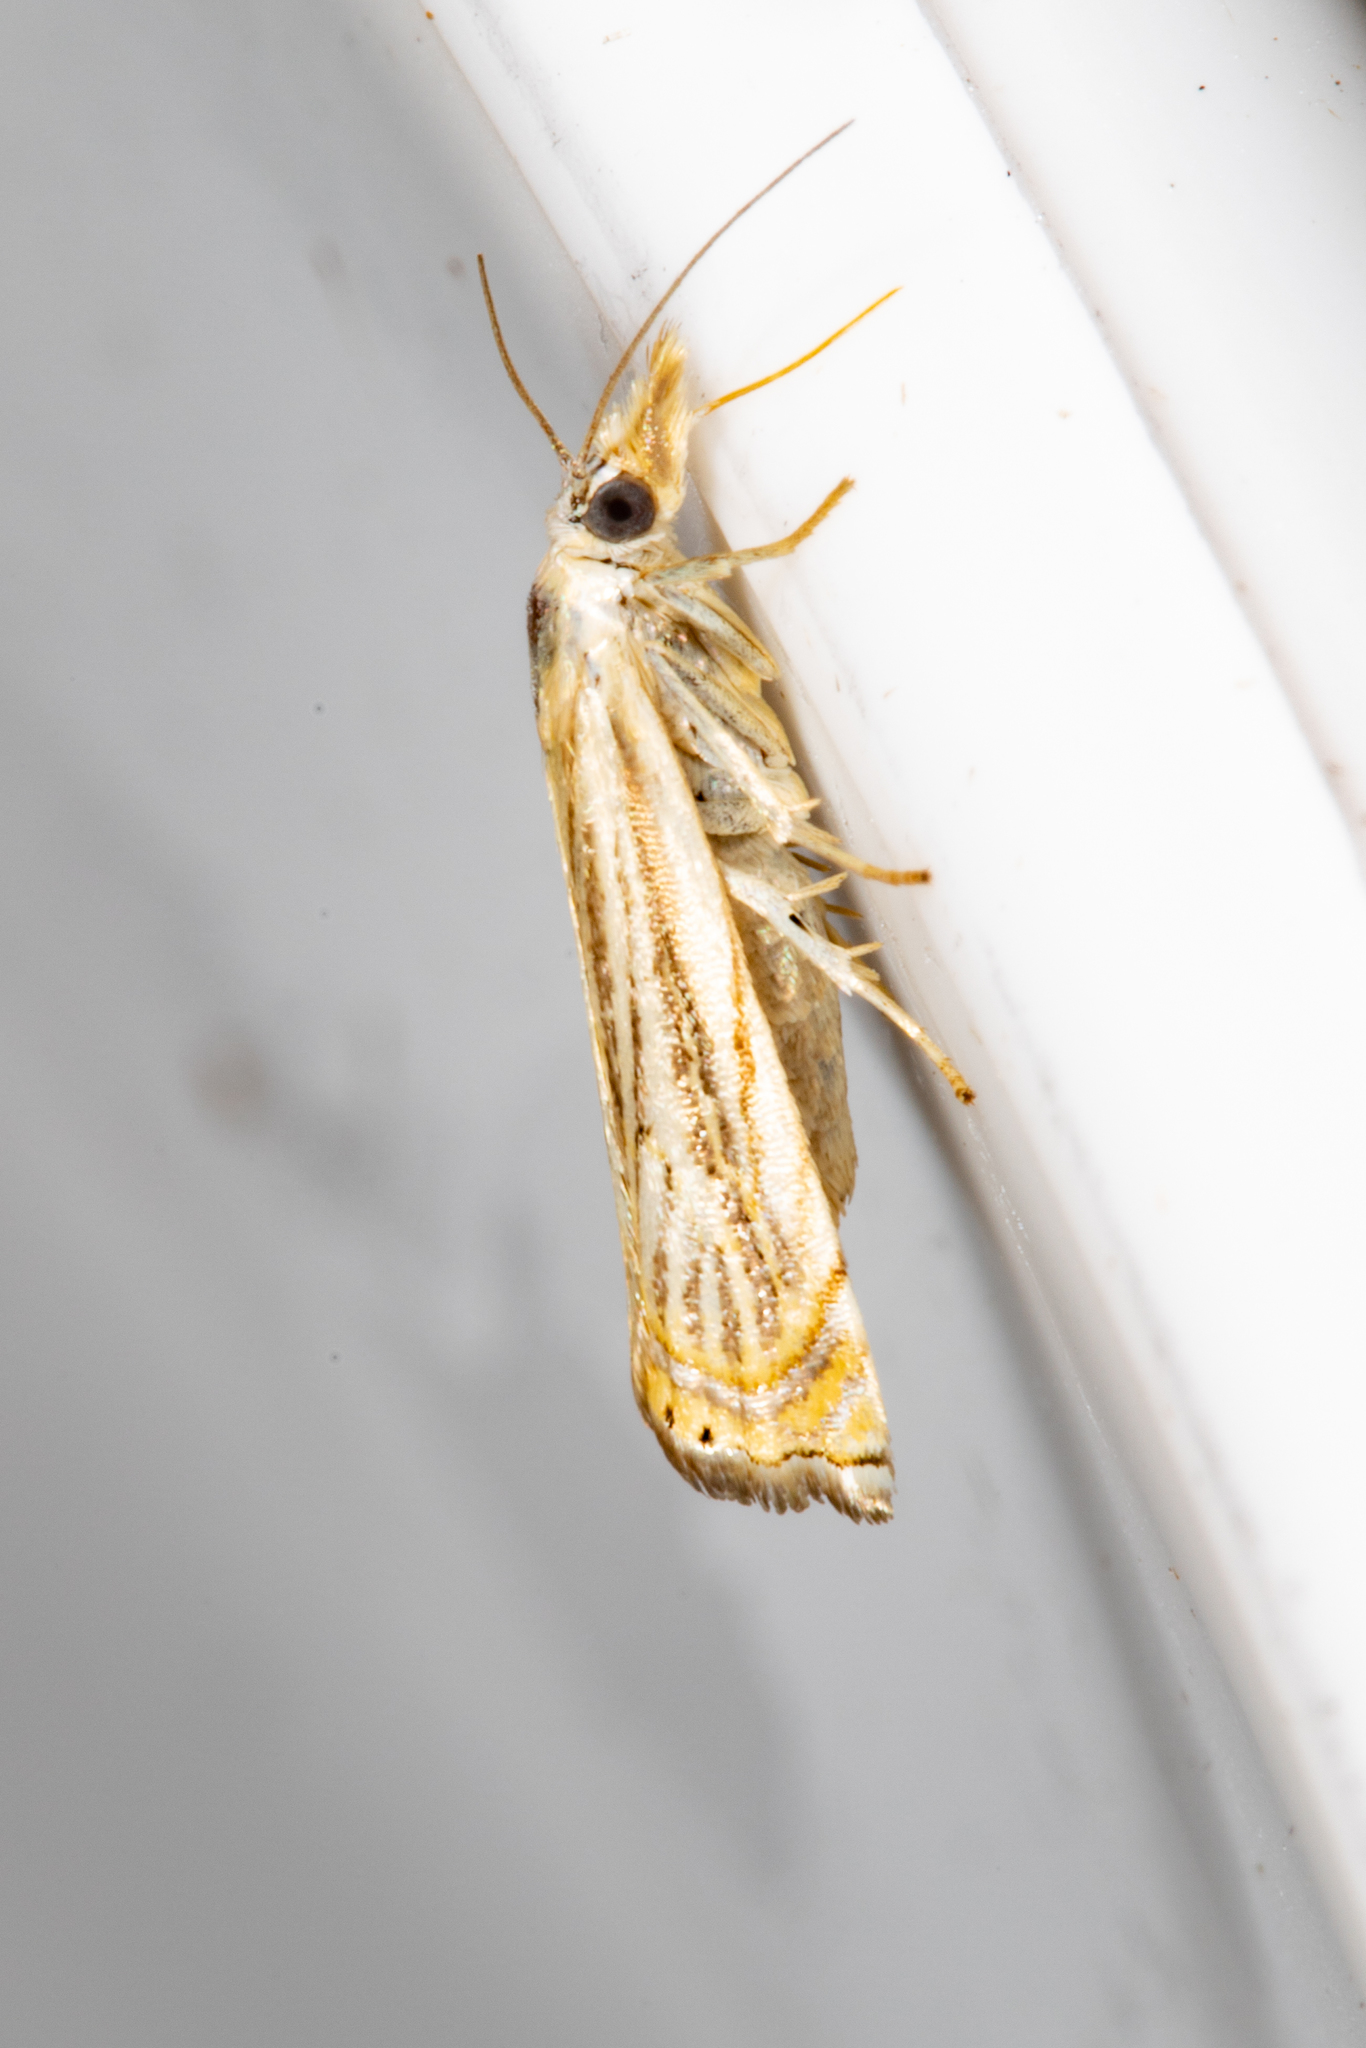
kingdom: Animalia
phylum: Arthropoda
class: Insecta
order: Lepidoptera
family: Crambidae
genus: Chrysoteuchia
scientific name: Chrysoteuchia topiarius
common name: Topiary grass-veneer
